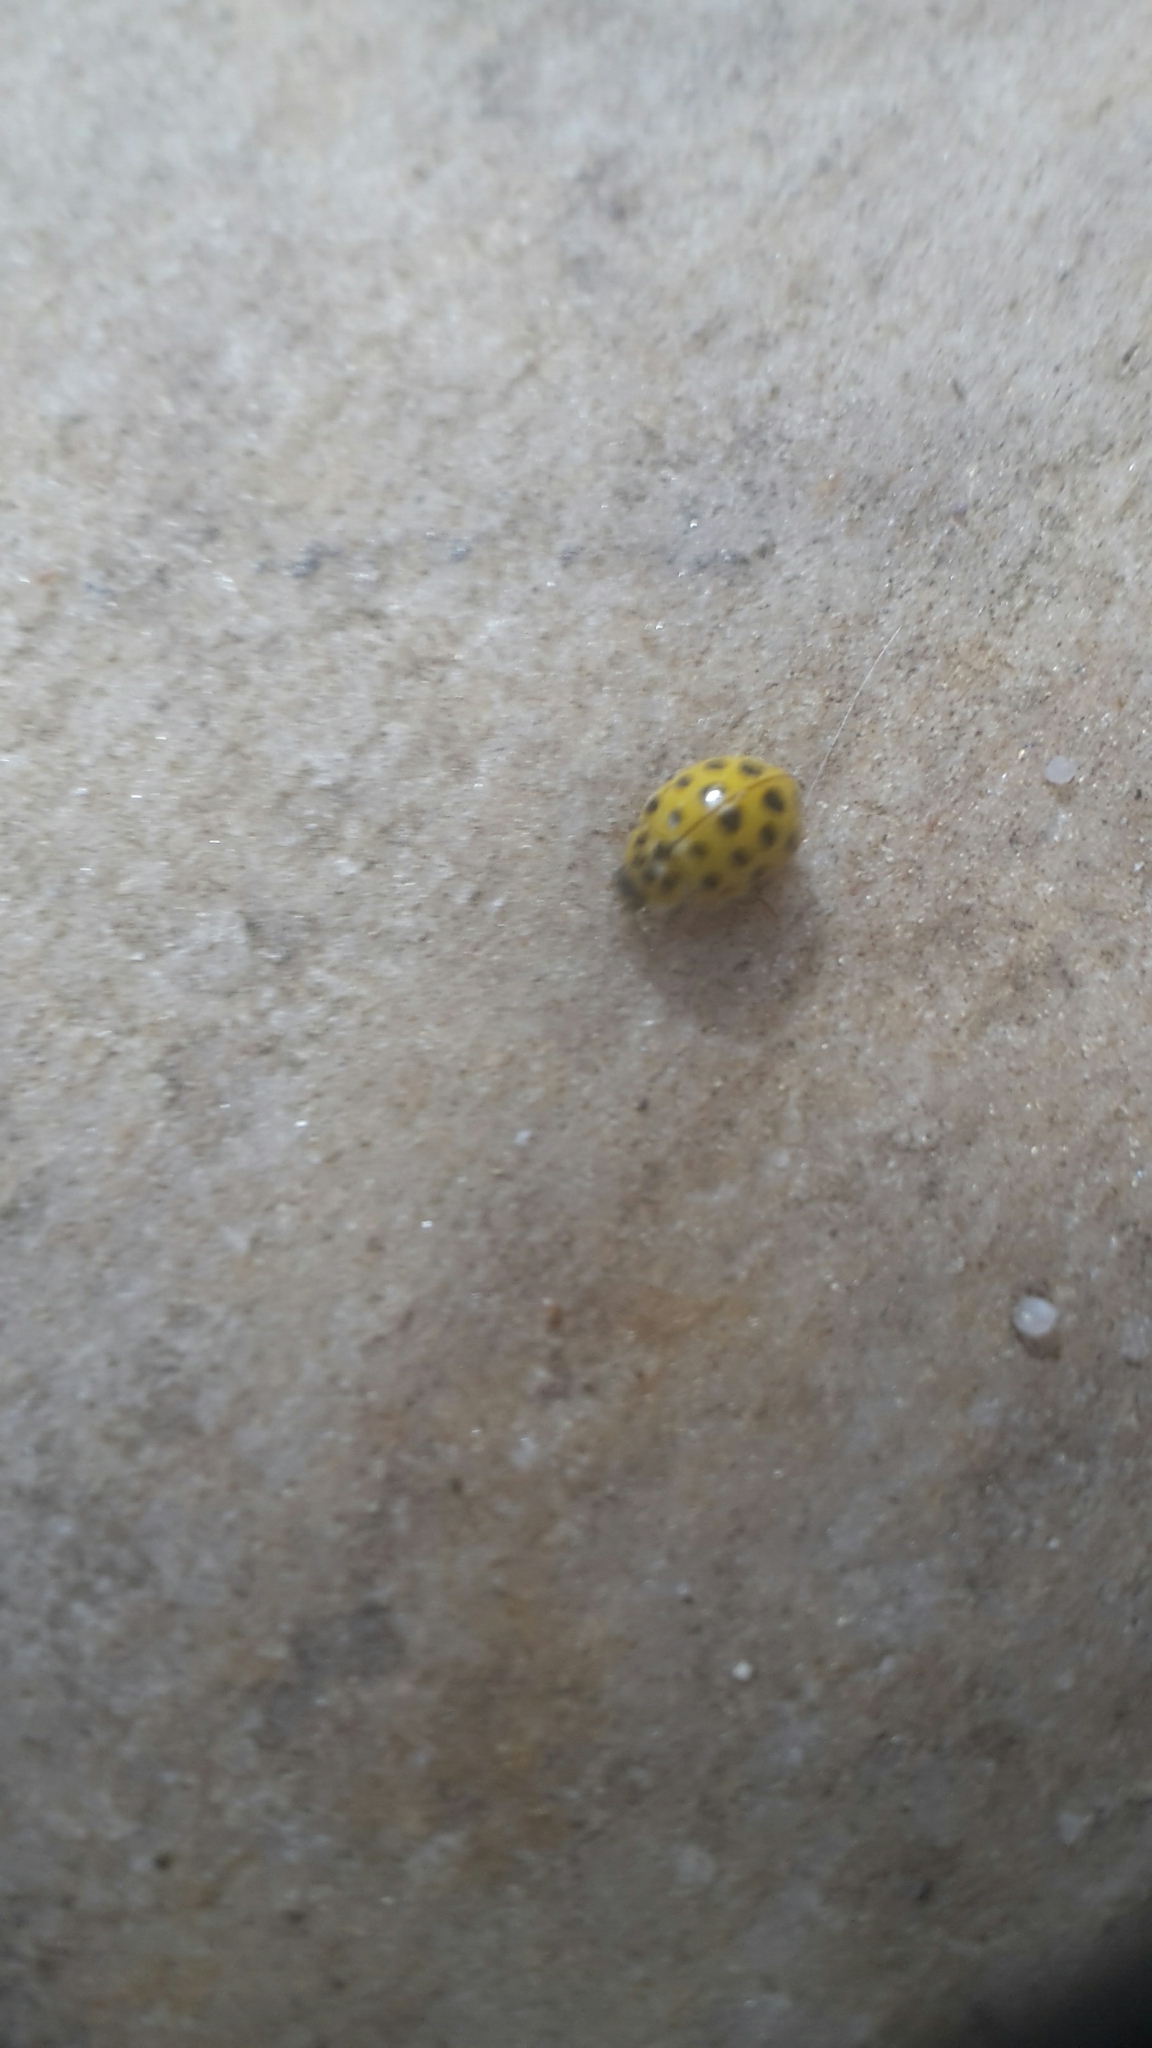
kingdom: Animalia
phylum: Arthropoda
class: Insecta
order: Coleoptera
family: Coccinellidae
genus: Psyllobora
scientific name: Psyllobora vigintiduopunctata
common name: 22-spot ladybird
